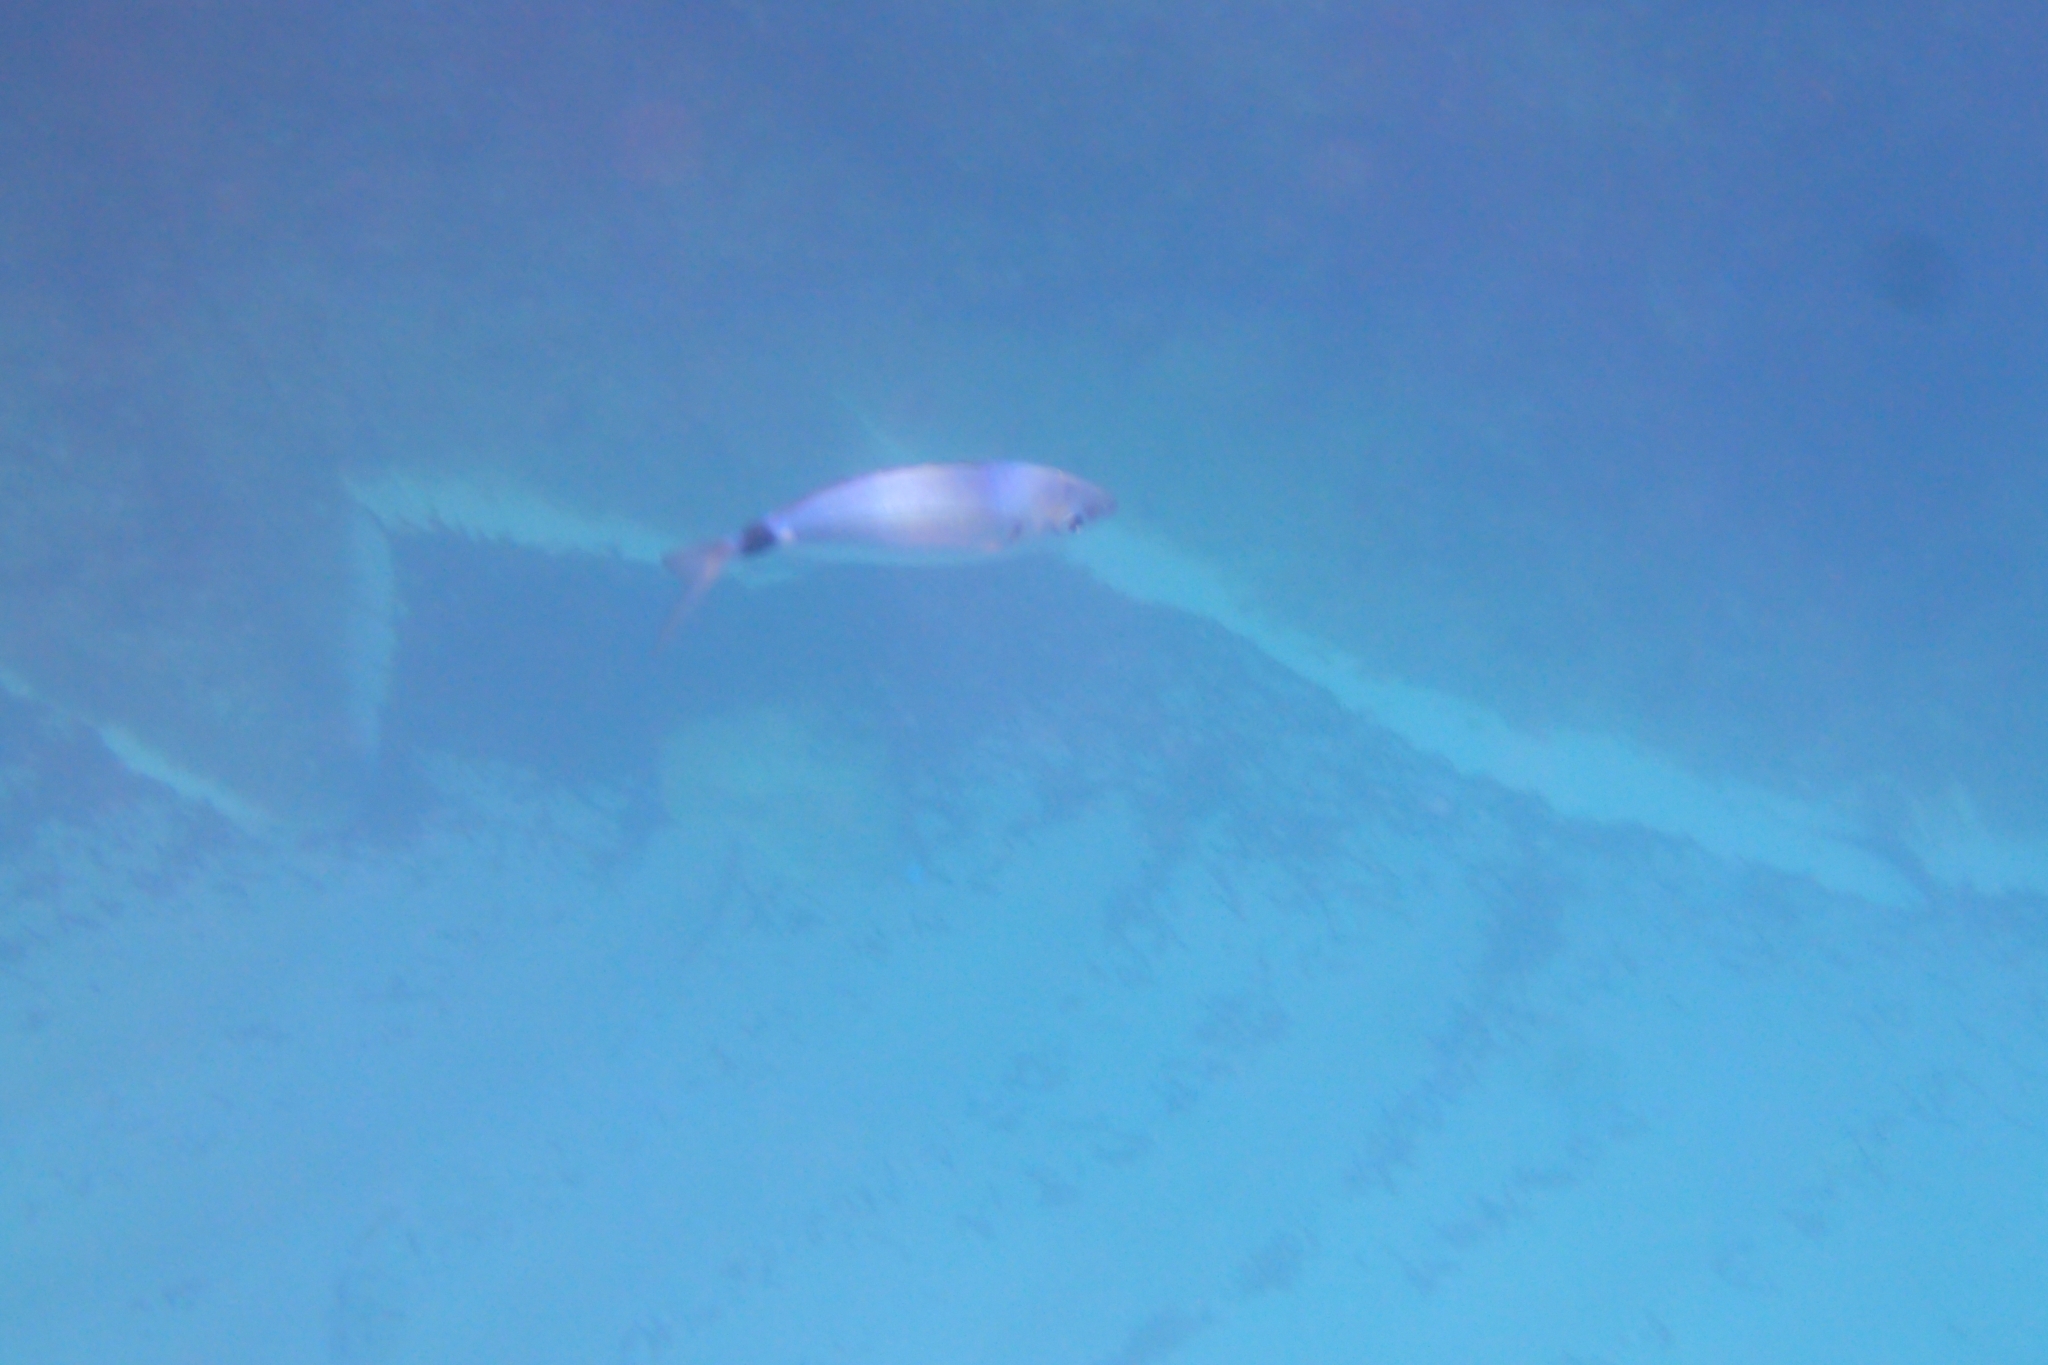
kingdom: Animalia
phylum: Chordata
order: Perciformes
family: Sparidae
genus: Oblada
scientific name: Oblada melanura
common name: Saddled seabream
